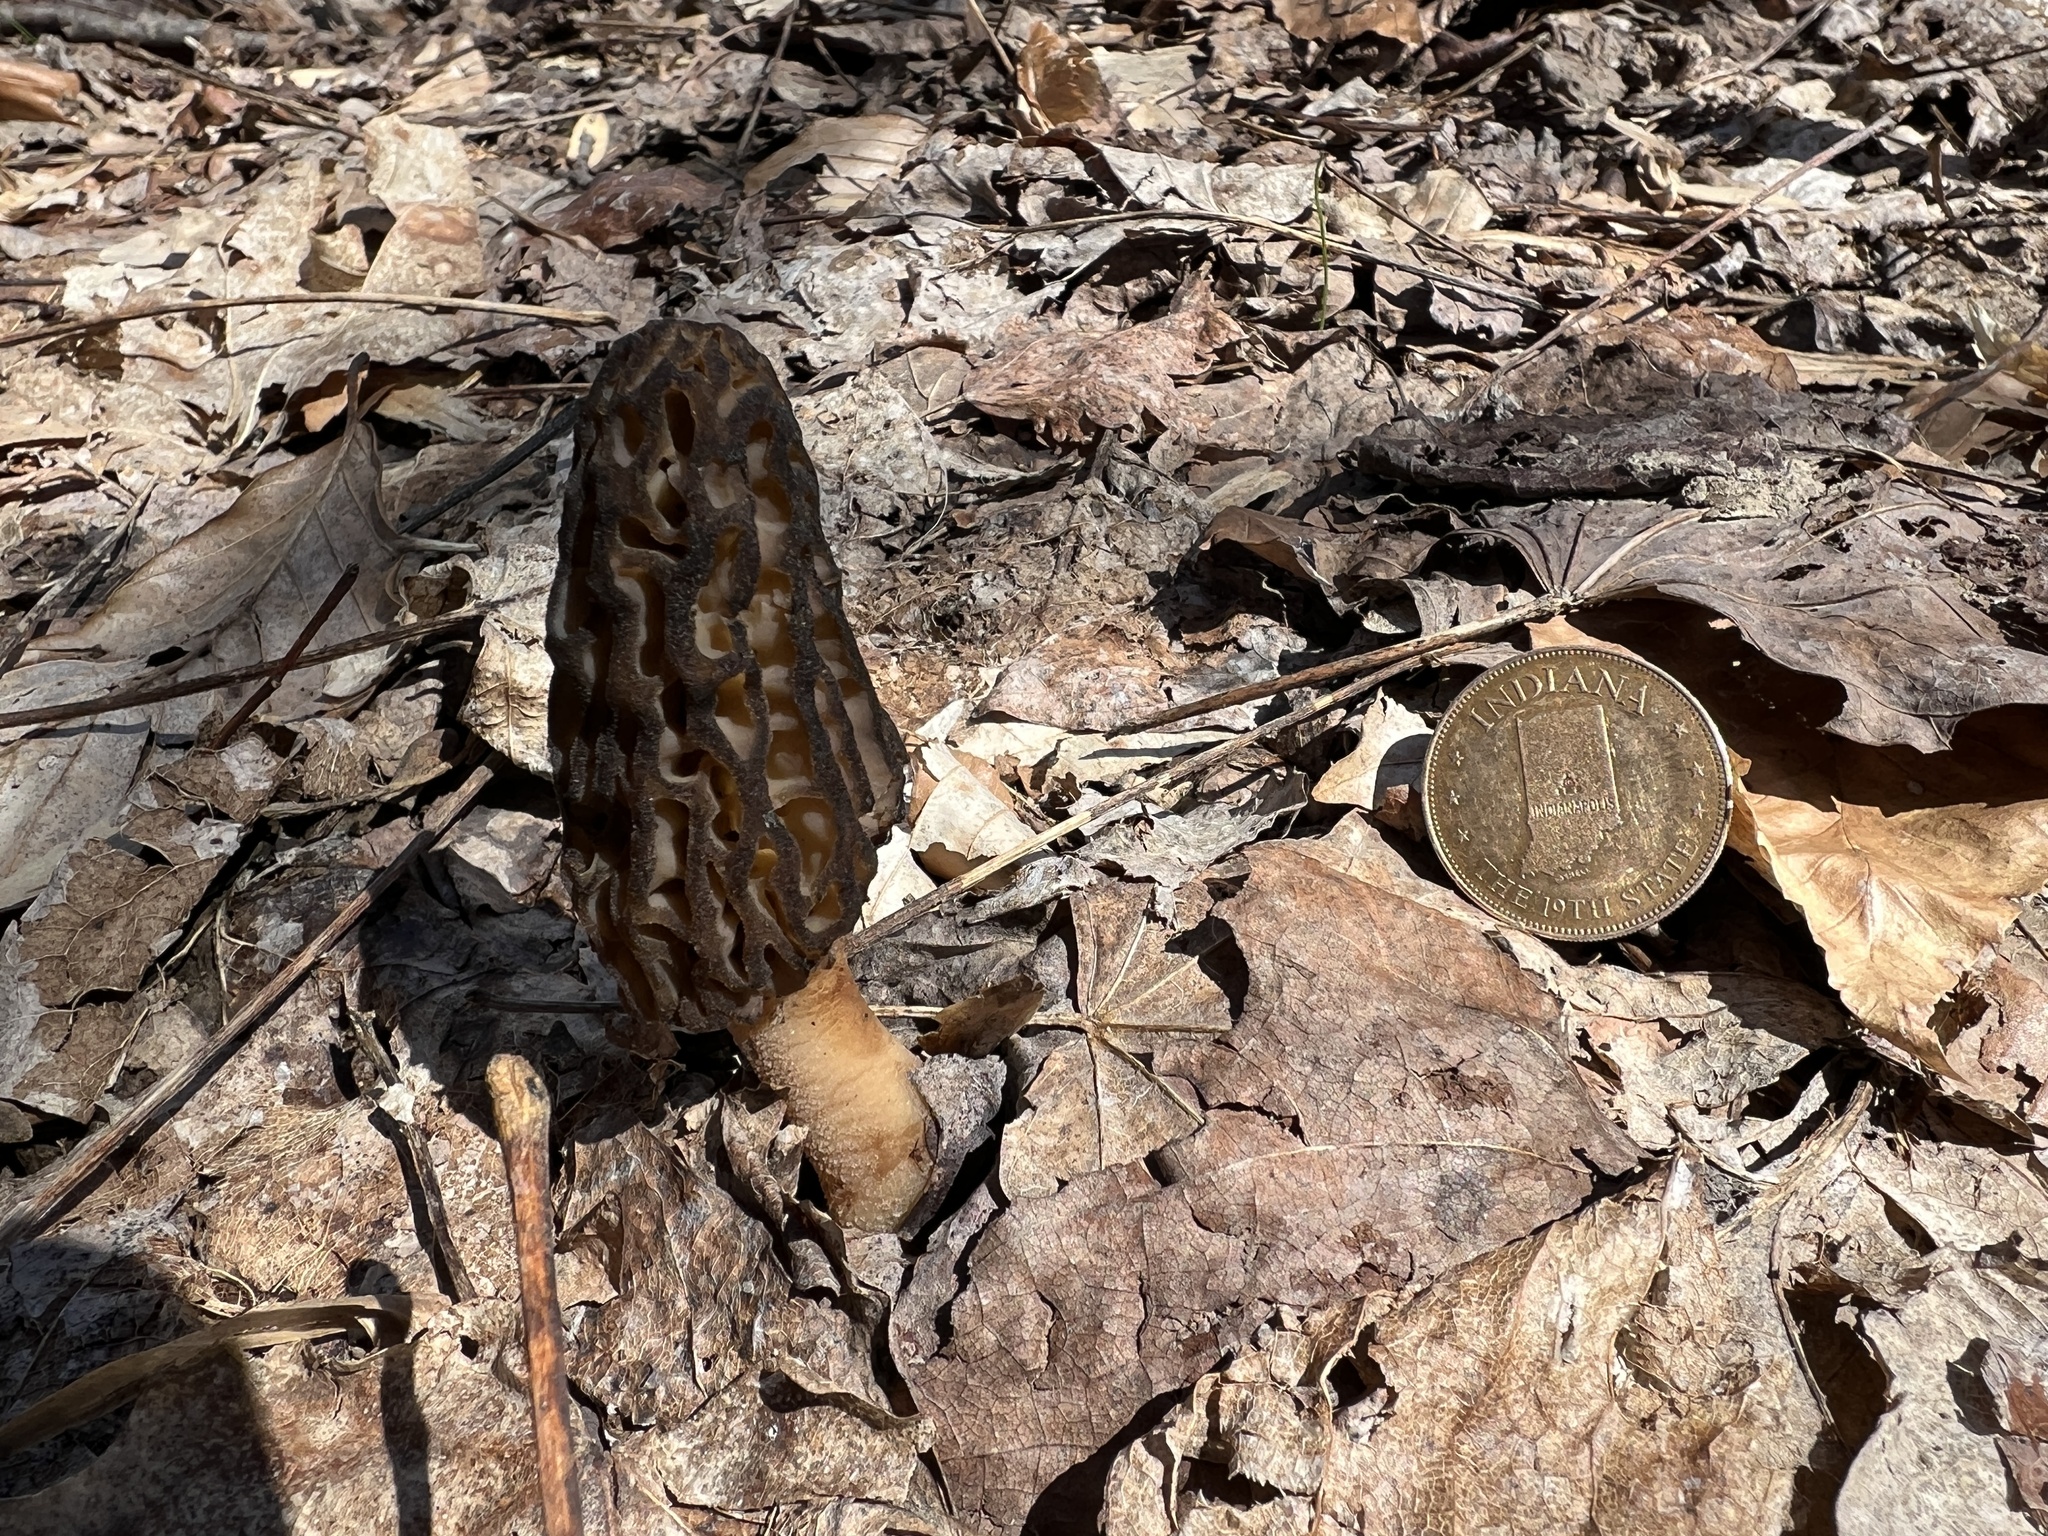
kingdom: Fungi
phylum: Ascomycota
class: Pezizomycetes
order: Pezizales
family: Morchellaceae
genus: Morchella
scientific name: Morchella angusticeps
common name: Black morel
